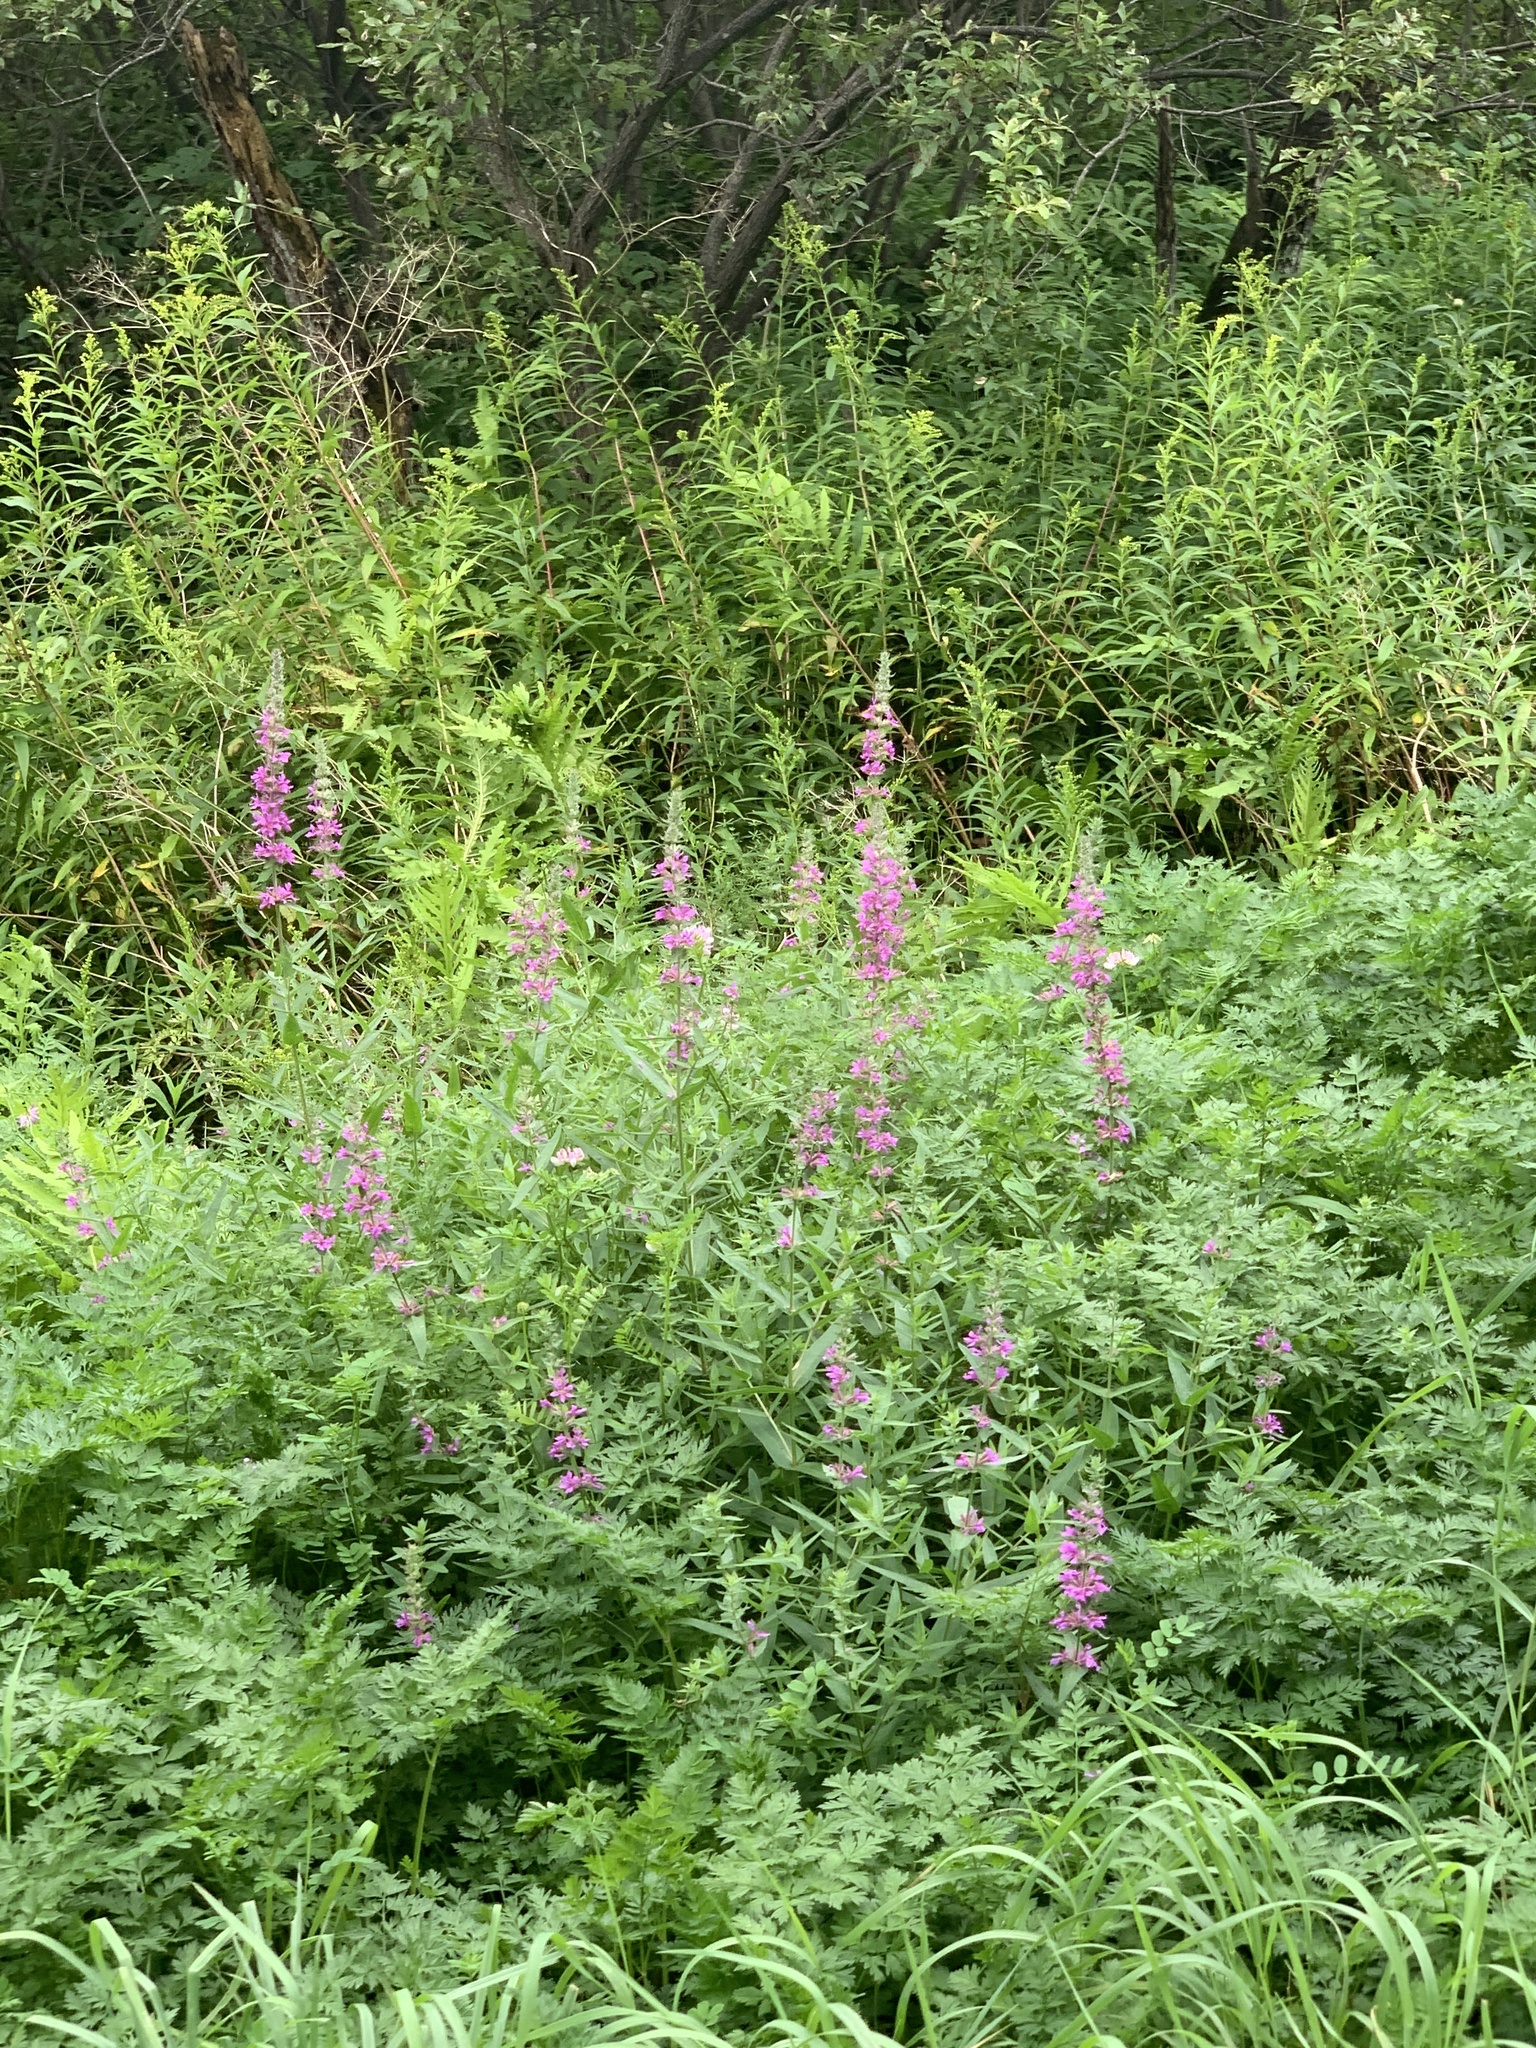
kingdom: Plantae
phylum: Tracheophyta
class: Magnoliopsida
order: Myrtales
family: Lythraceae
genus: Lythrum
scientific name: Lythrum salicaria
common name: Purple loosestrife
